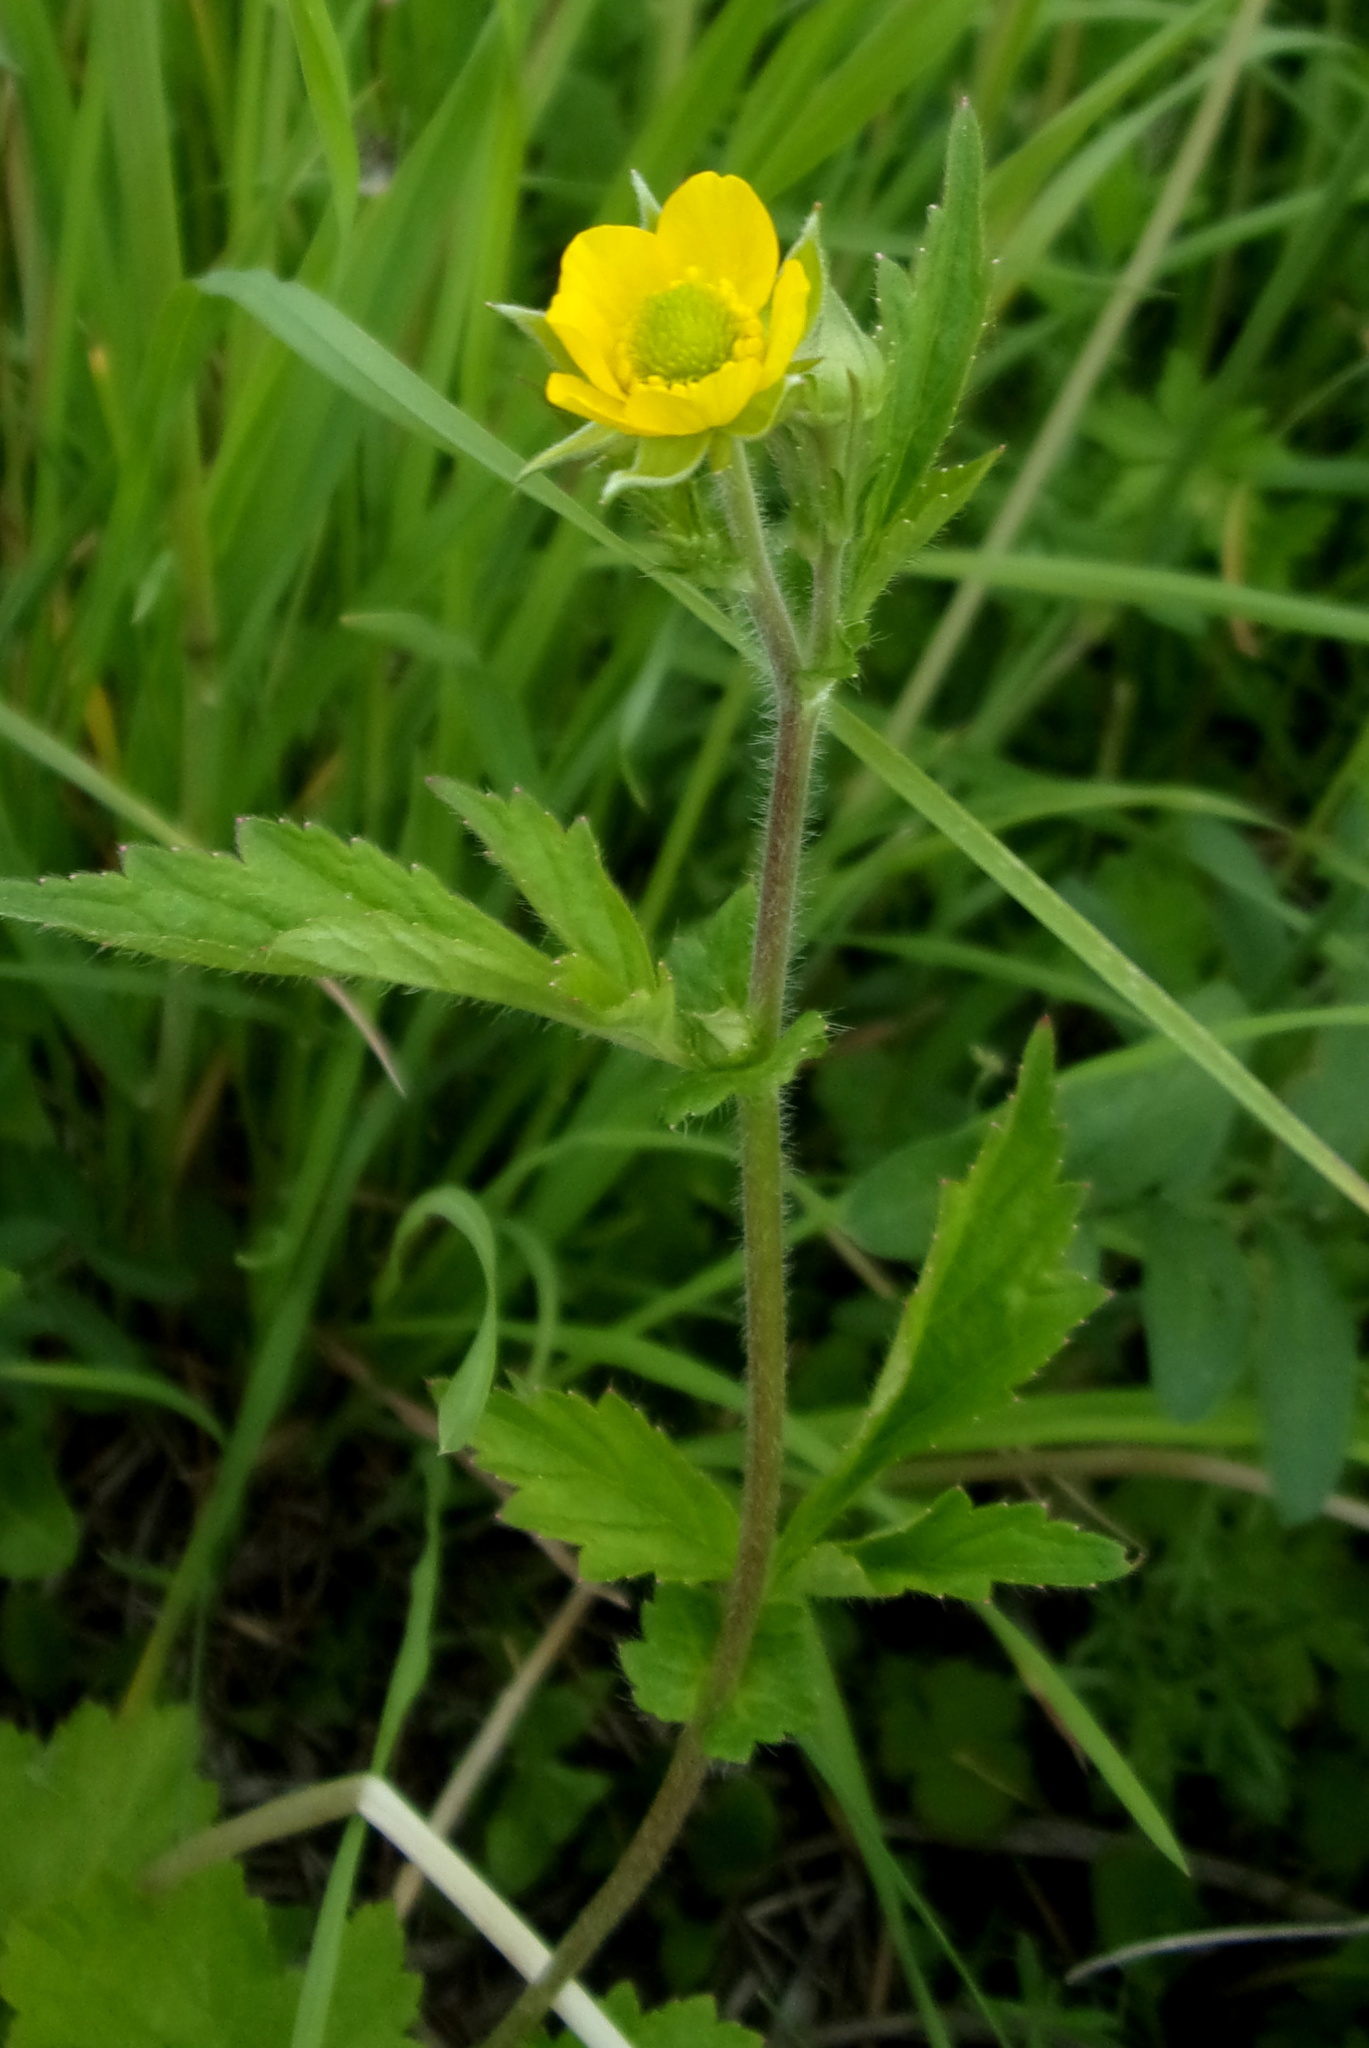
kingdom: Plantae
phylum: Tracheophyta
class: Magnoliopsida
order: Rosales
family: Rosaceae
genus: Geum
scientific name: Geum aleppicum
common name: Yellow avens
